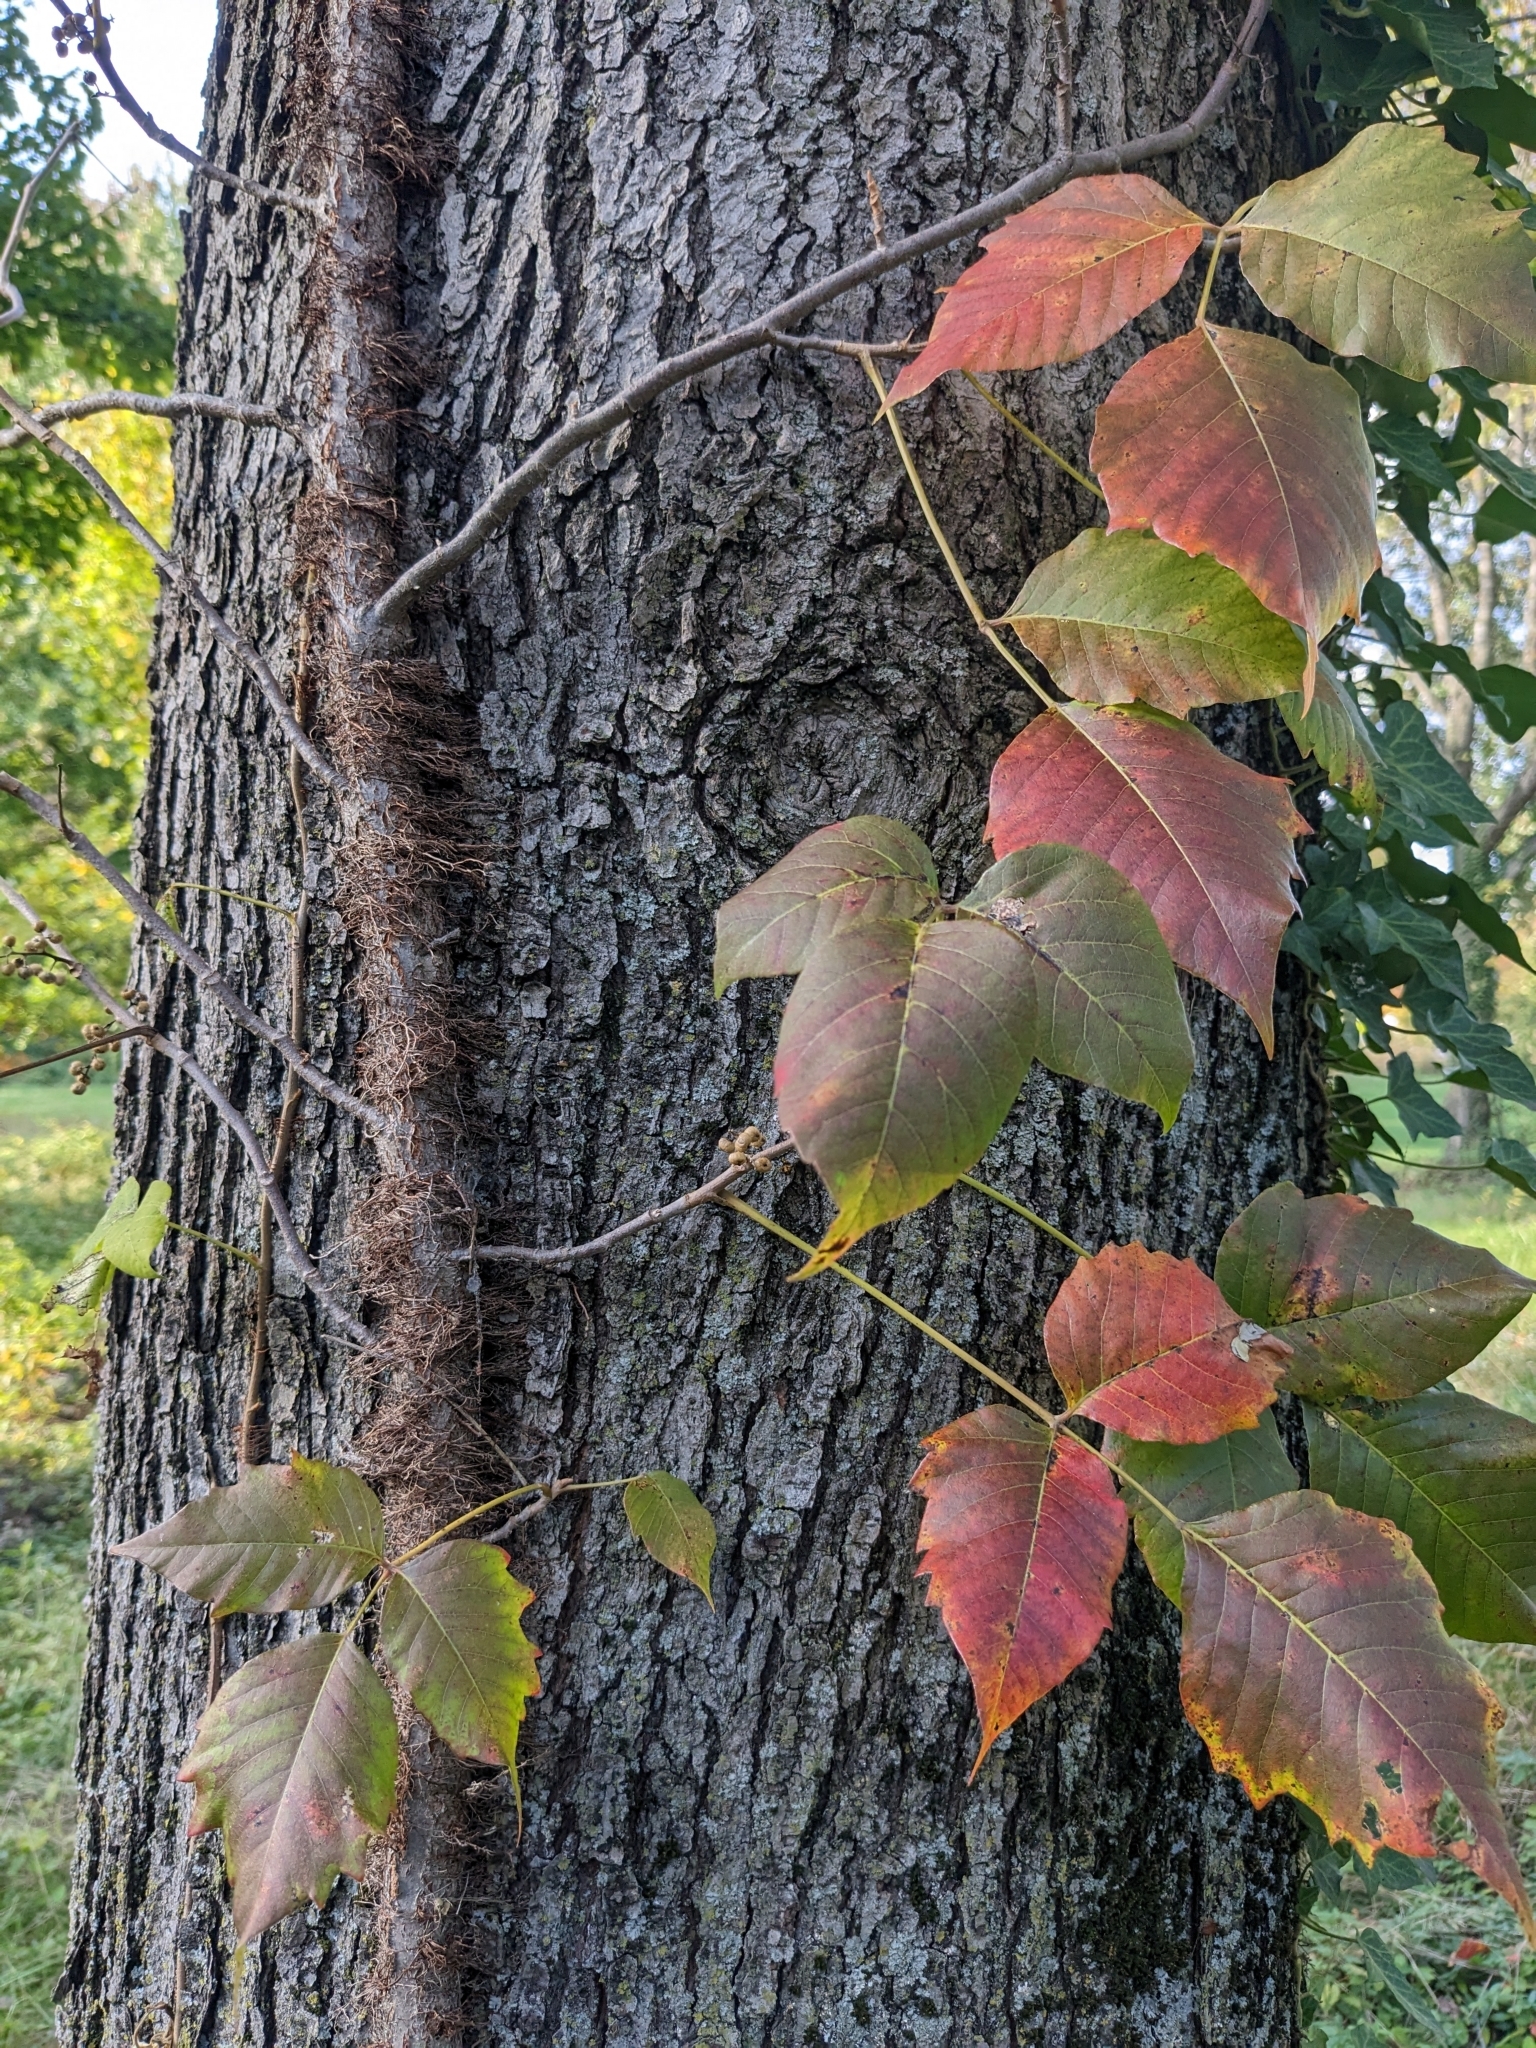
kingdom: Plantae
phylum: Tracheophyta
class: Magnoliopsida
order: Sapindales
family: Anacardiaceae
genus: Toxicodendron
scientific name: Toxicodendron radicans
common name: Poison ivy
